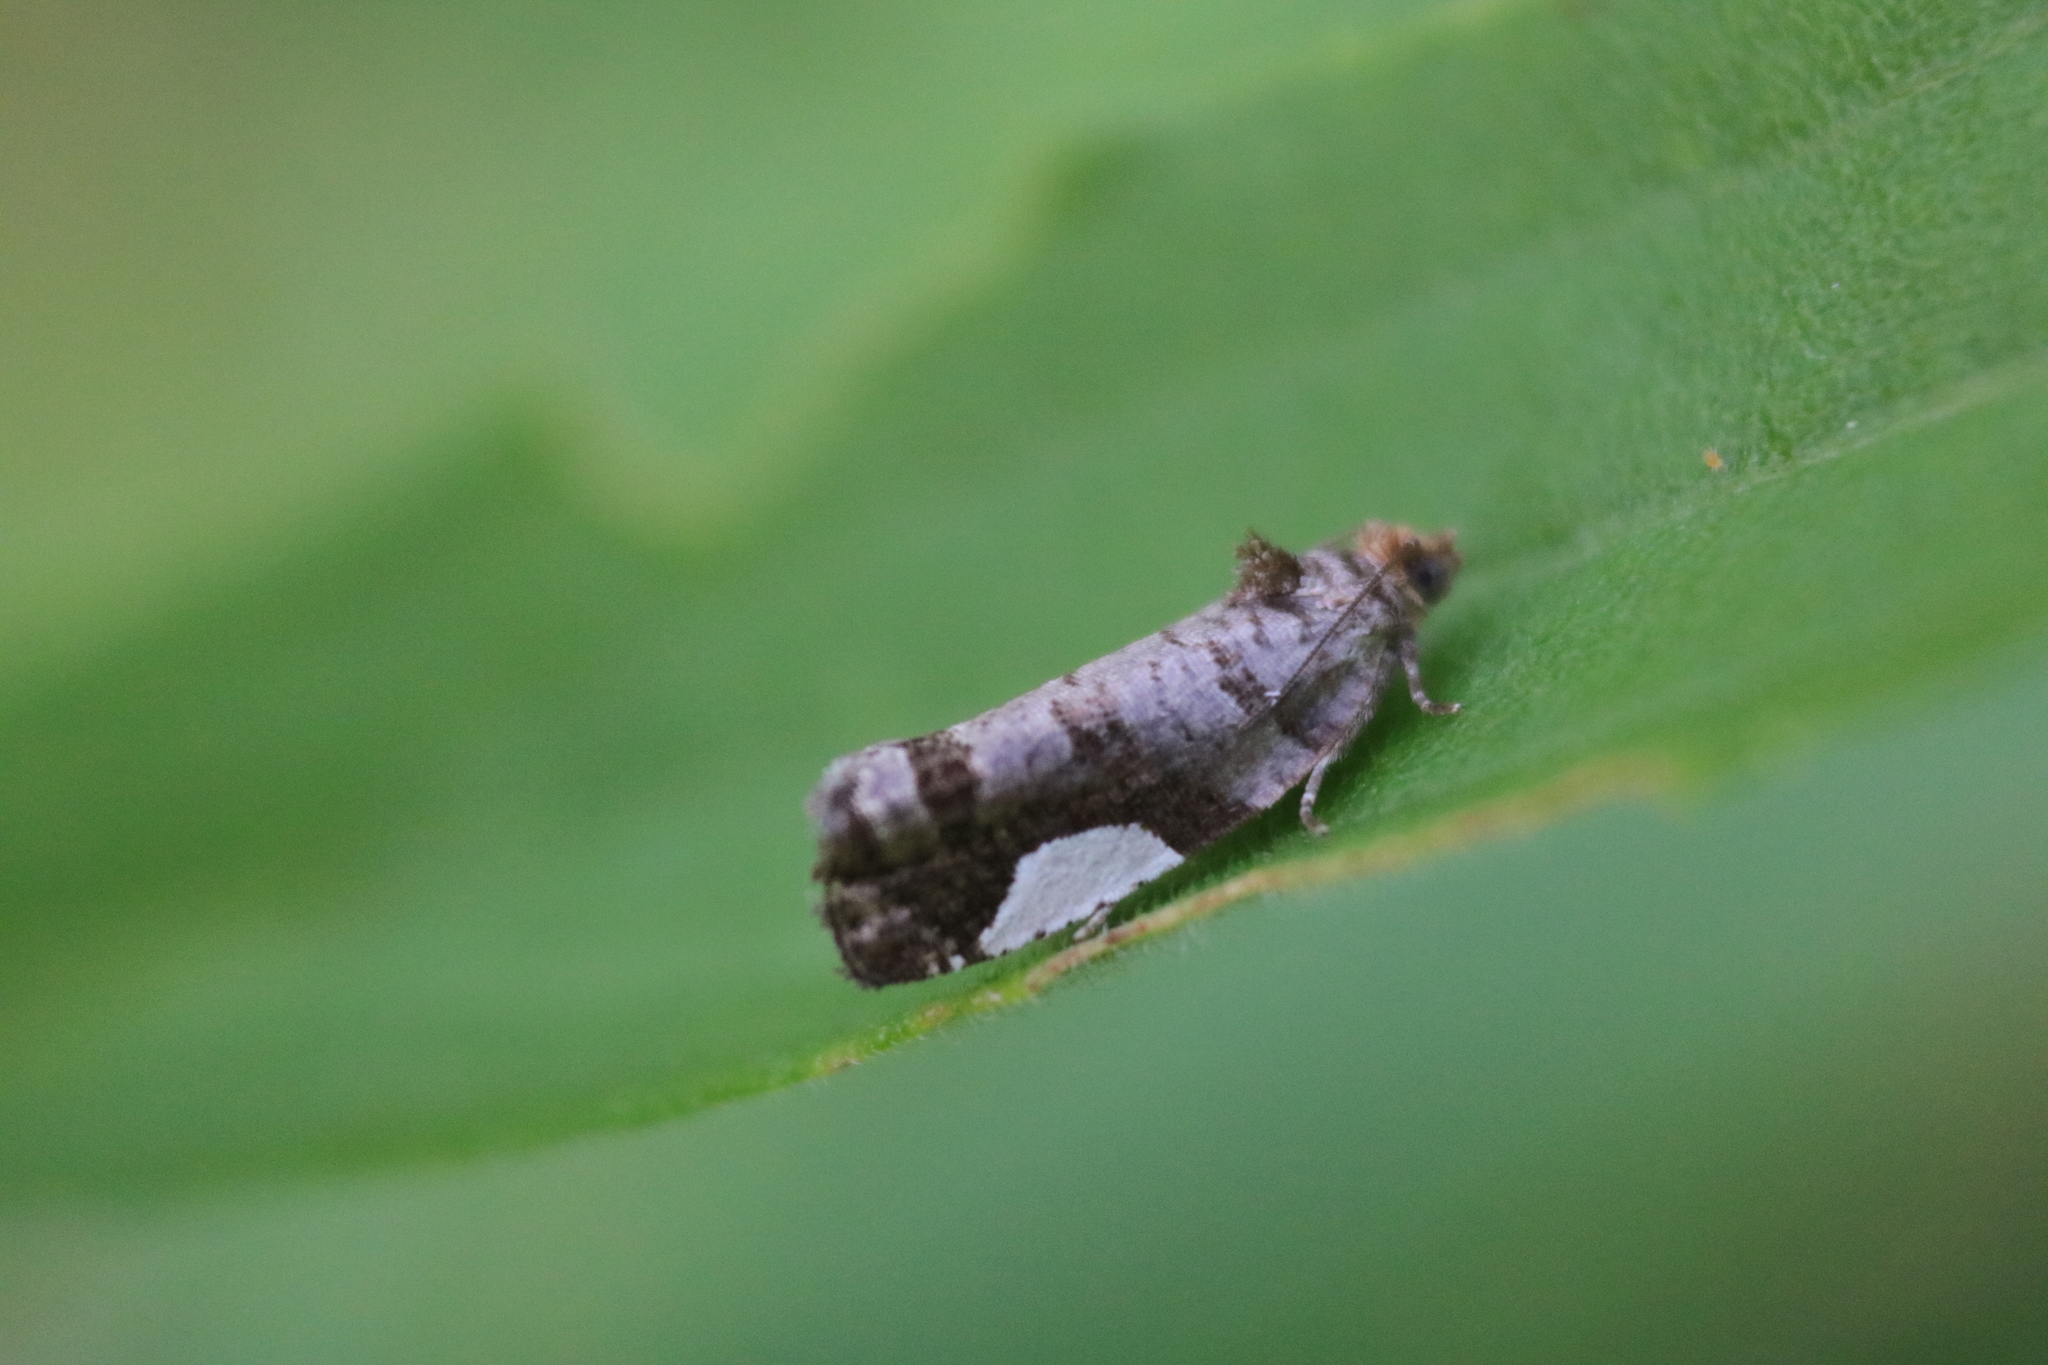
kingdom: Animalia
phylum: Arthropoda
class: Insecta
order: Lepidoptera
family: Tortricidae
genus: Hedya
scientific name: Hedya chionosema
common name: White-spotted hedya moth
